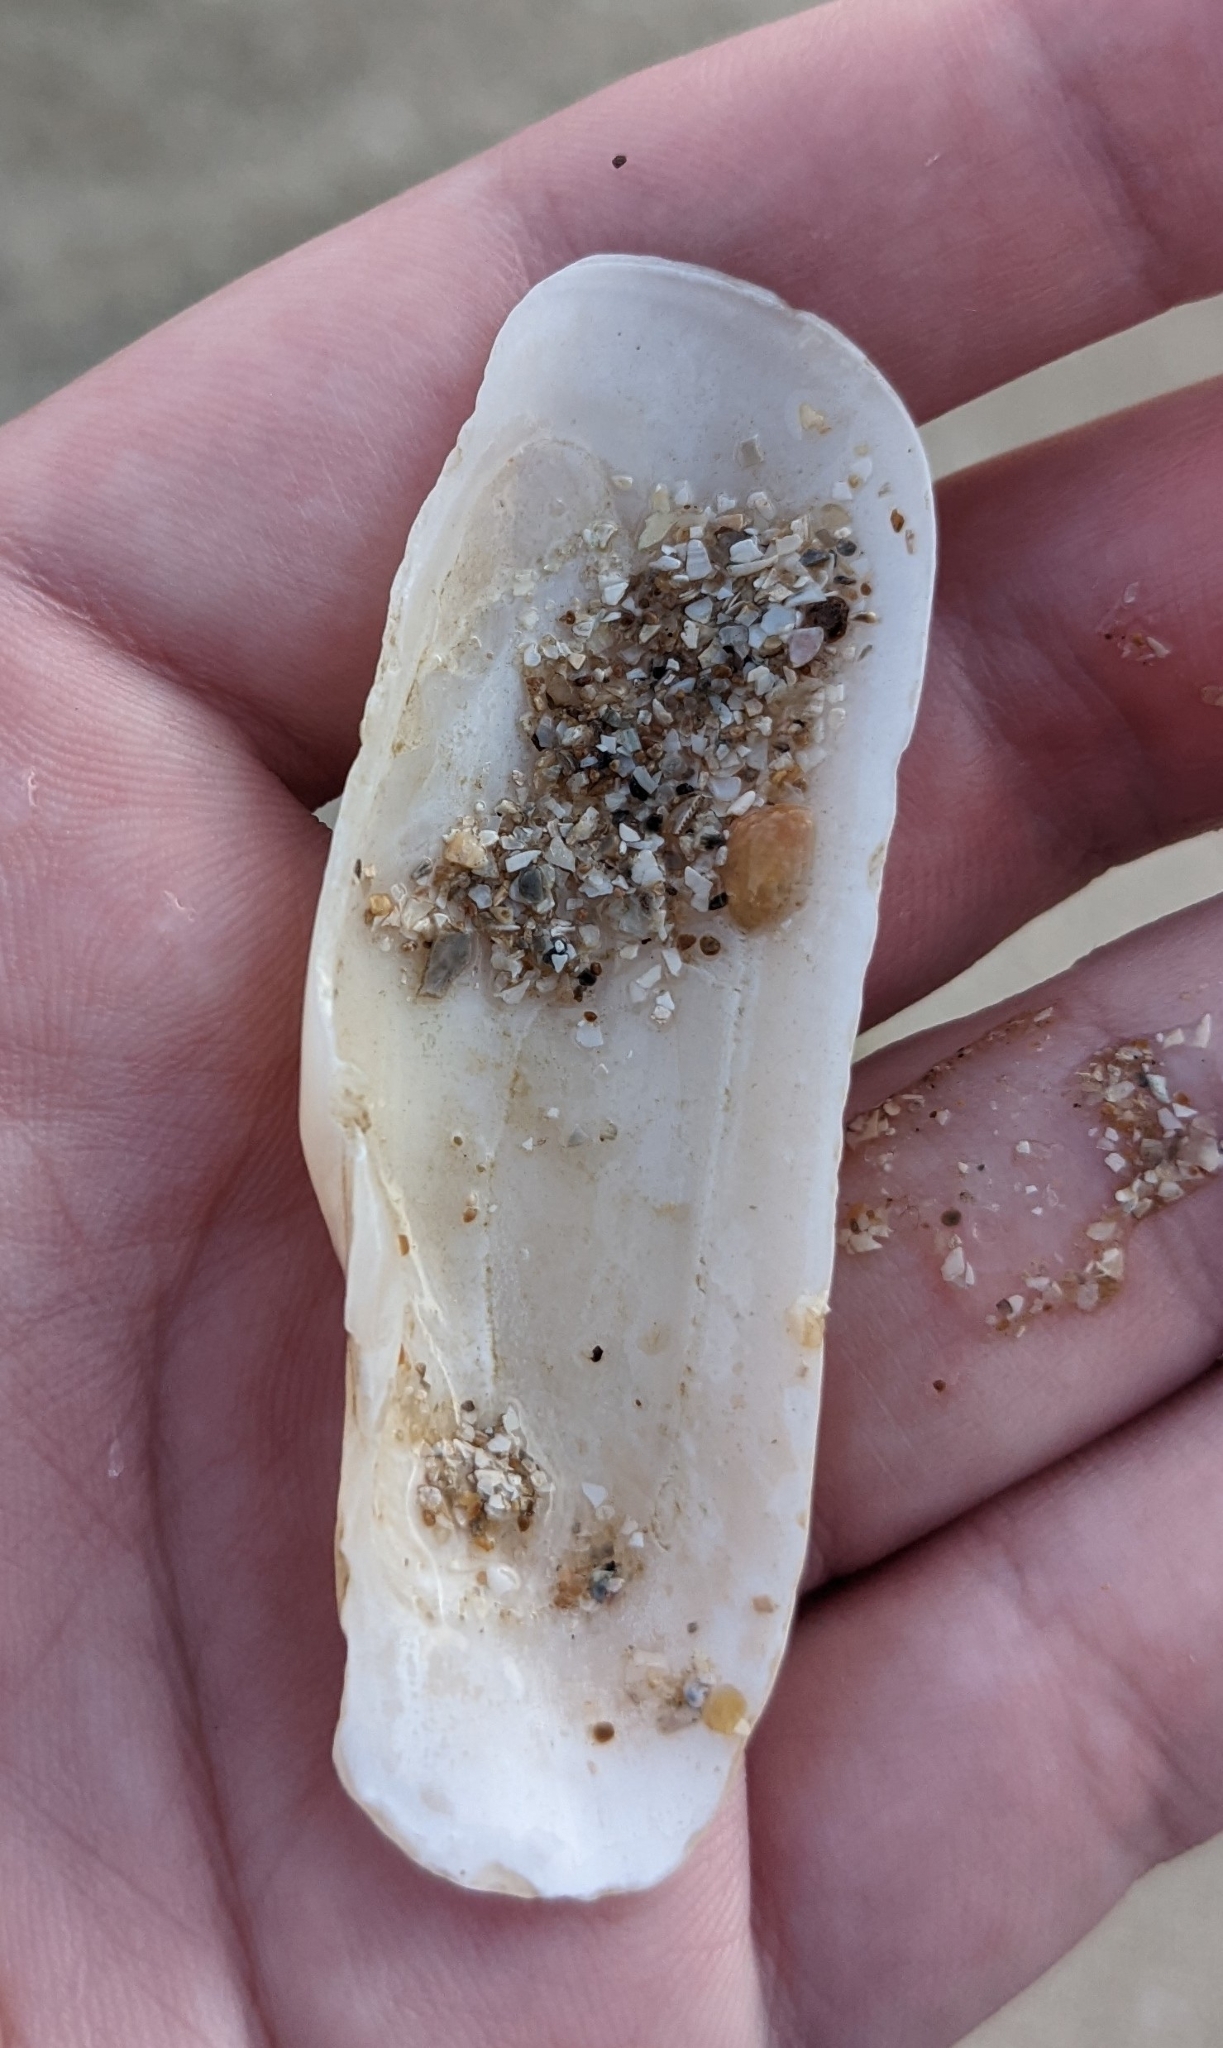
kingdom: Animalia
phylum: Mollusca
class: Bivalvia
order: Cardiida
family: Solecurtidae
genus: Tagelus
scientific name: Tagelus plebeius
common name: Stout tagelus
